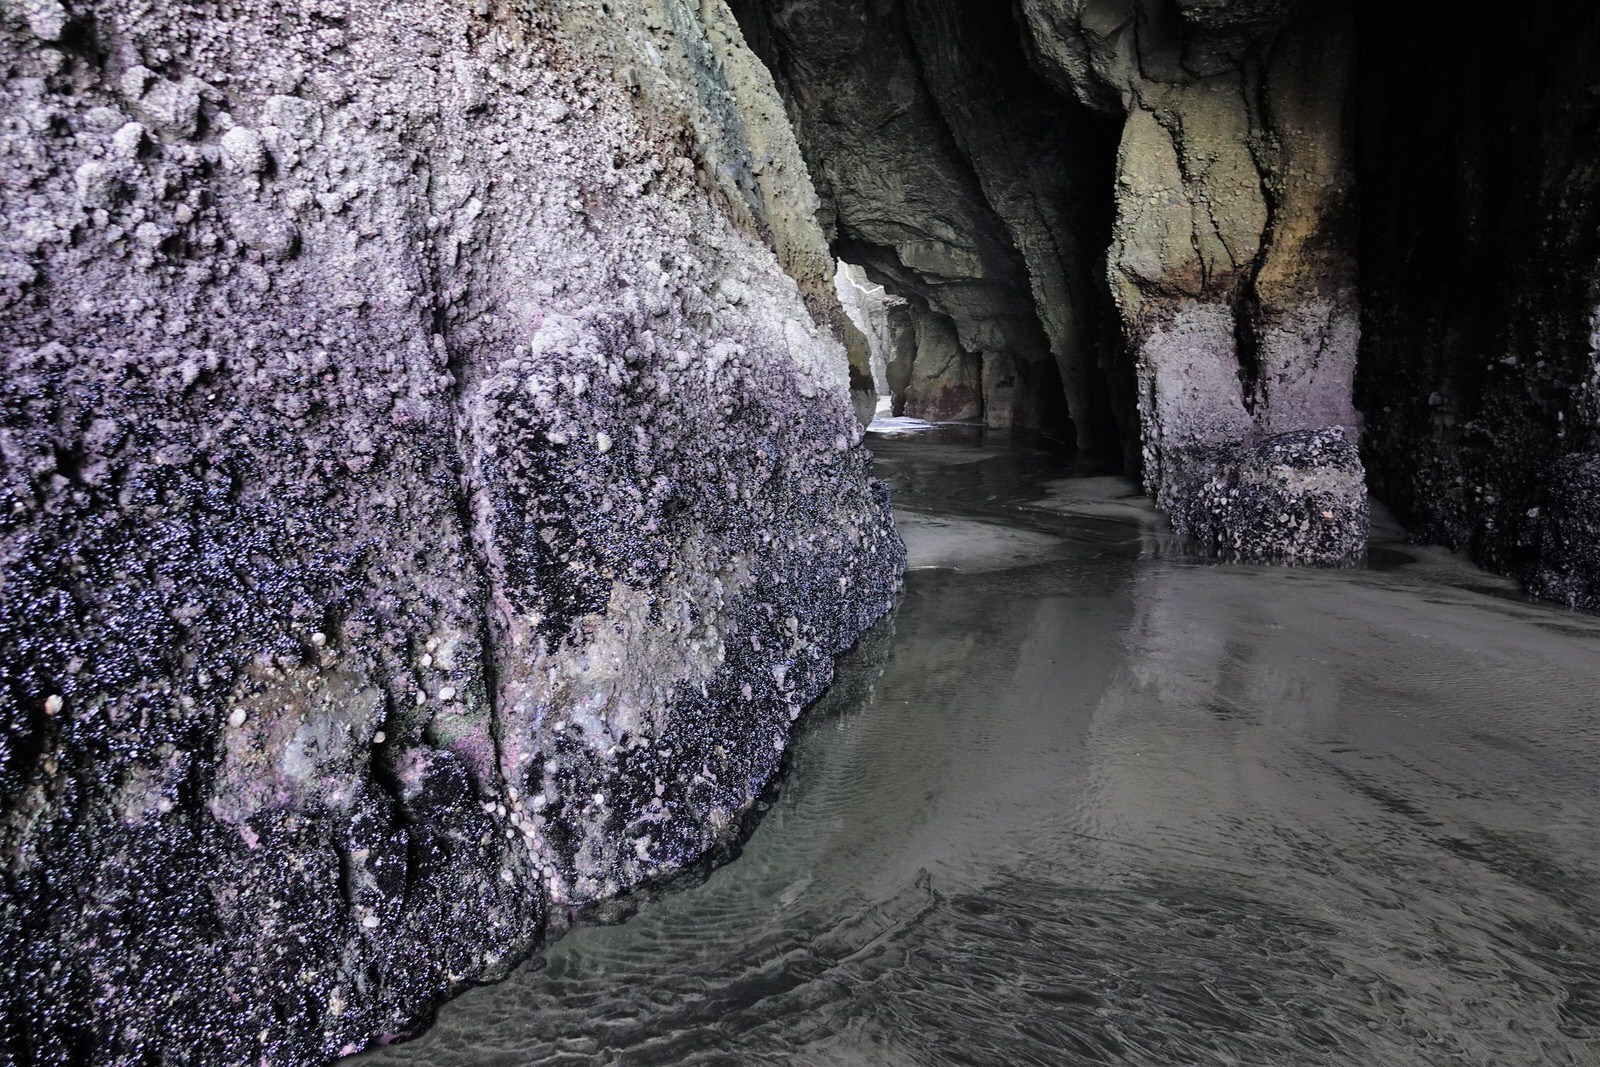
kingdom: Animalia
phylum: Mollusca
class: Gastropoda
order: Neogastropoda
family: Muricidae
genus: Dicathais
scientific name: Dicathais orbita
